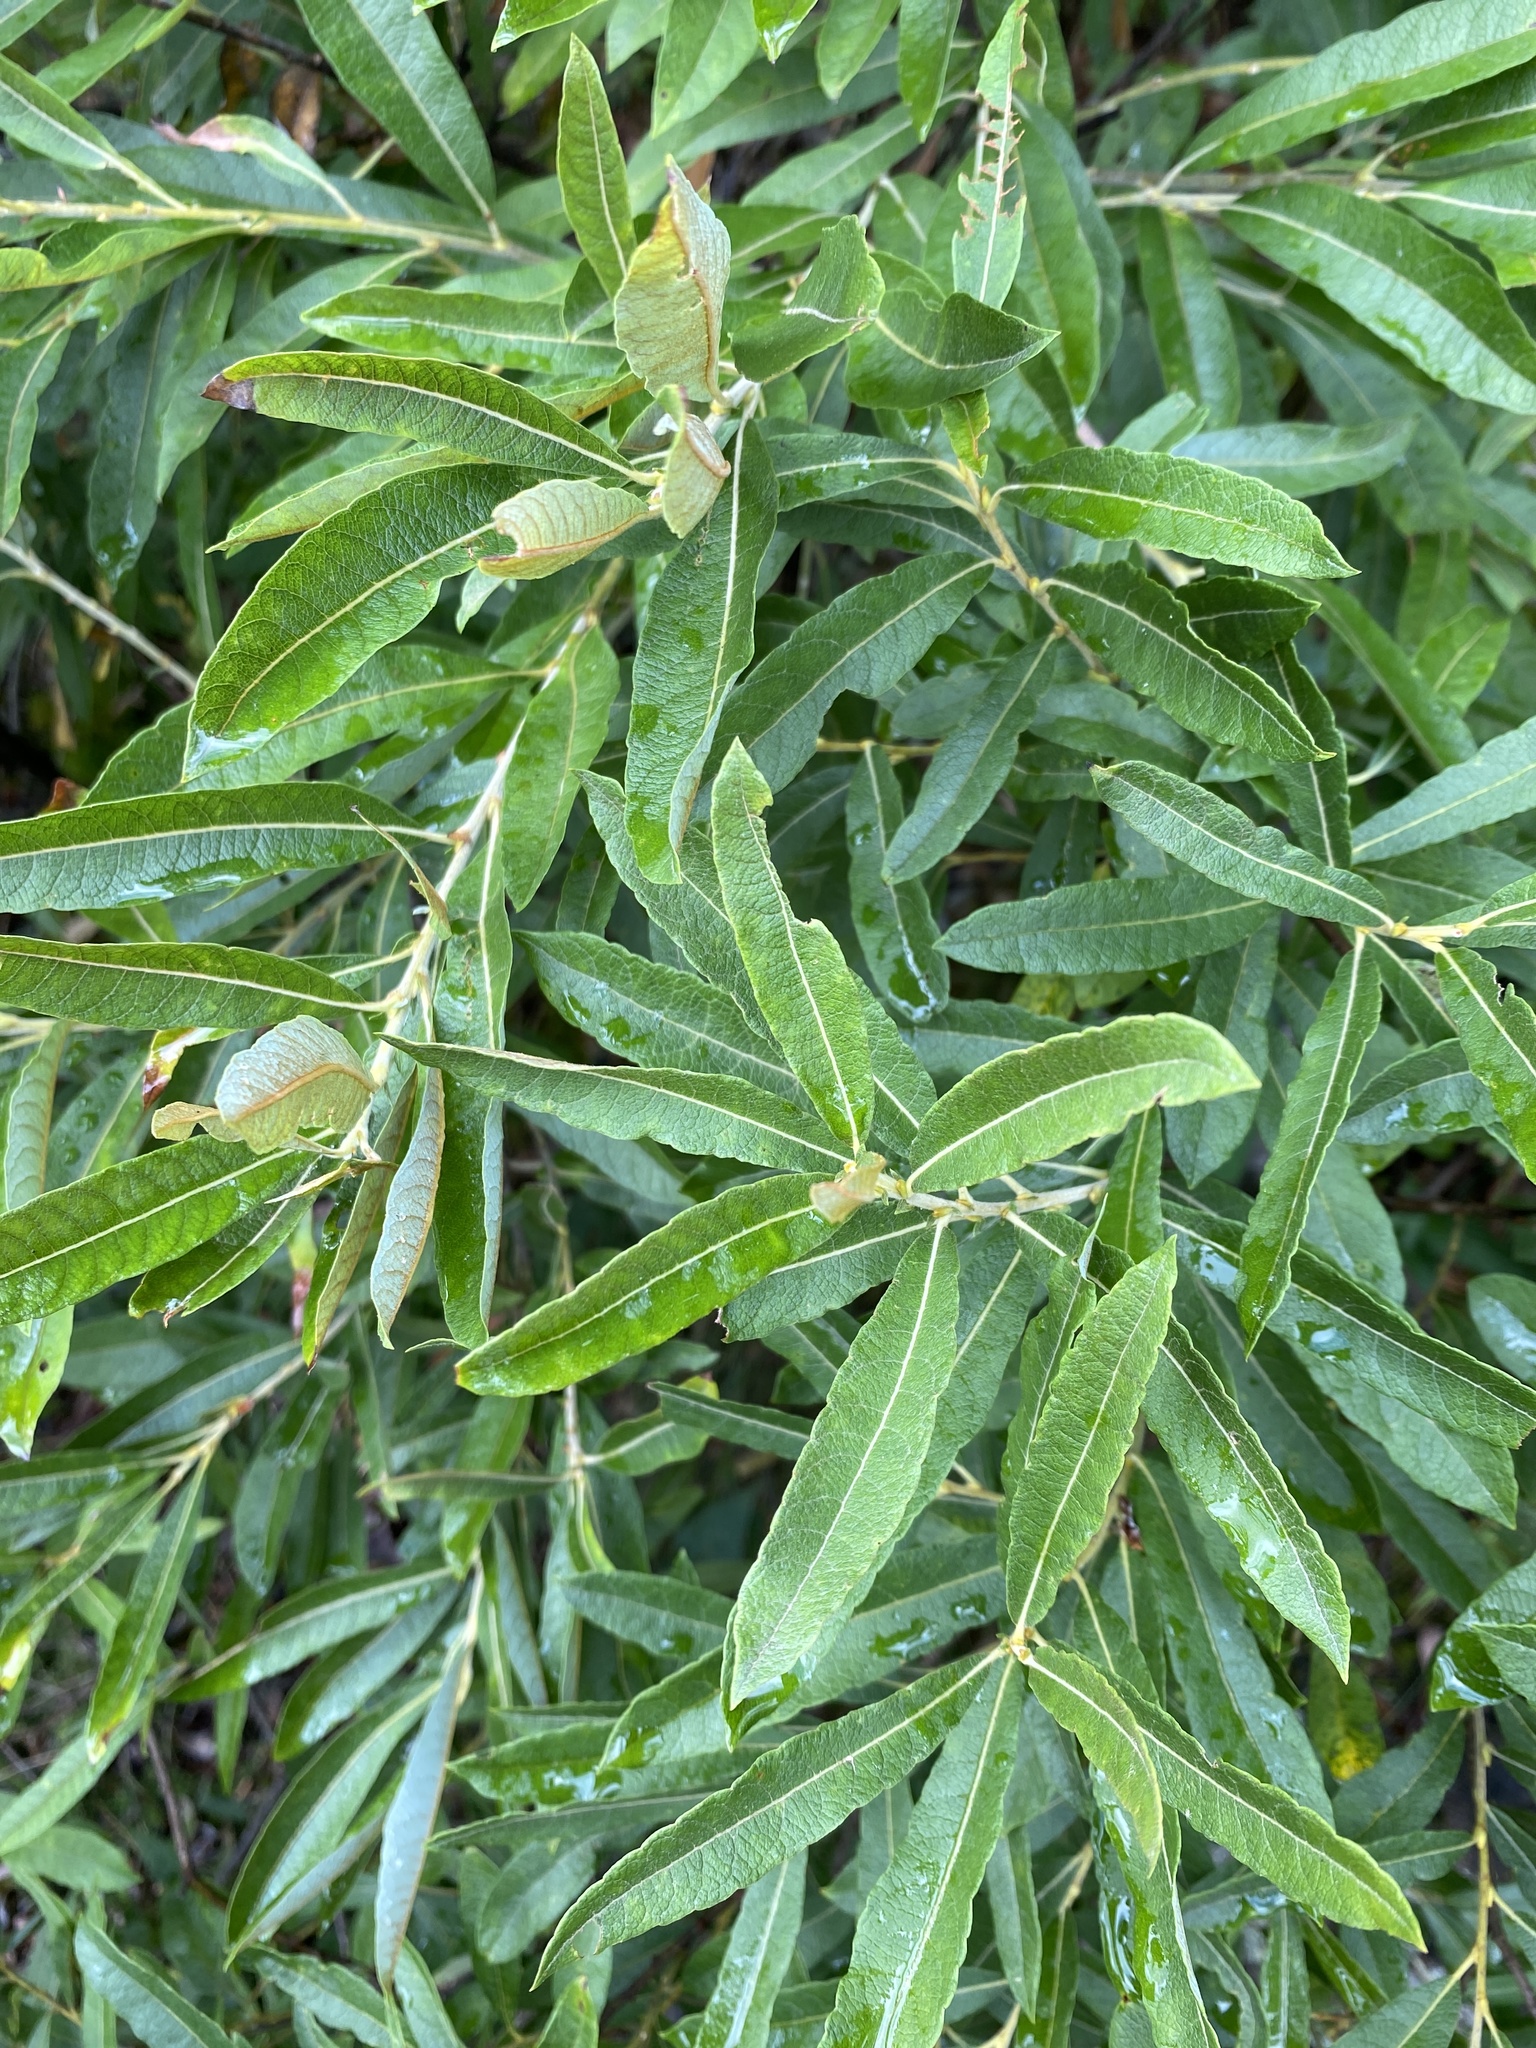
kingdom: Plantae
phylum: Tracheophyta
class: Magnoliopsida
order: Malpighiales
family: Salicaceae
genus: Salix
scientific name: Salix humilis
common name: Prairie willow
